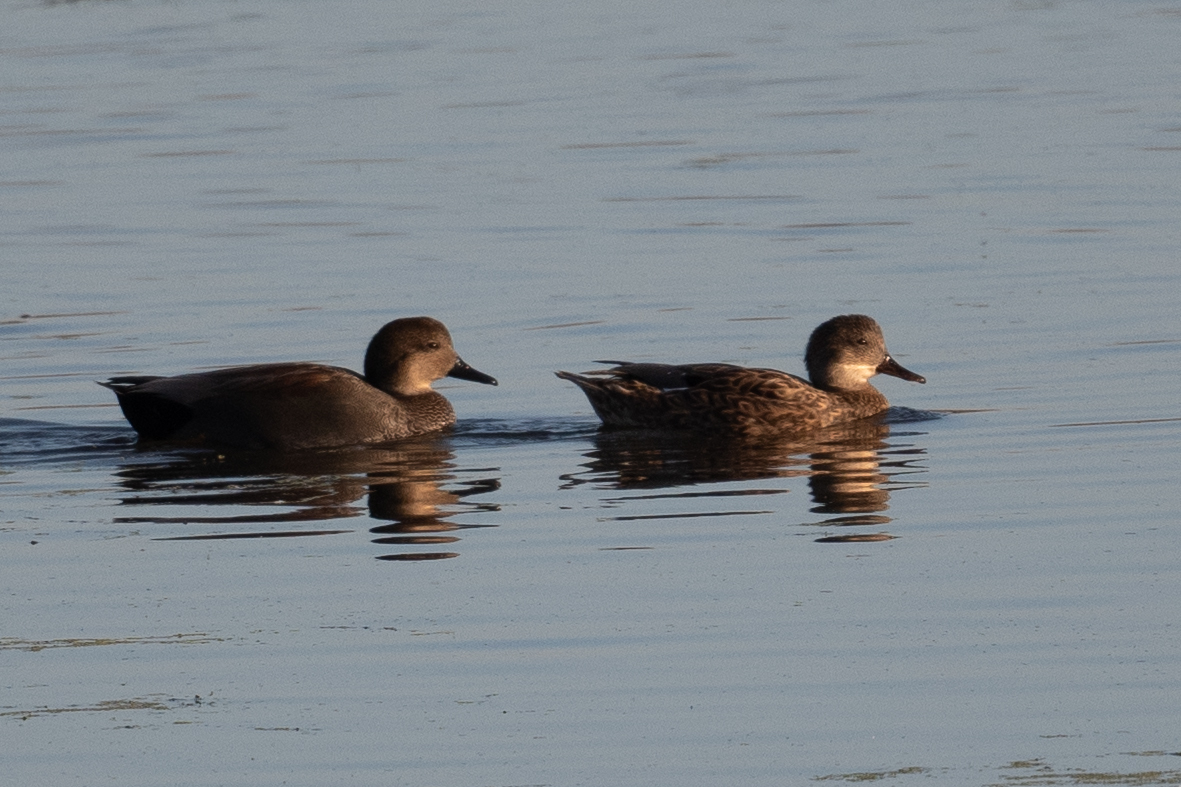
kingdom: Animalia
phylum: Chordata
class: Aves
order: Anseriformes
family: Anatidae
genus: Mareca
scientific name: Mareca strepera
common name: Gadwall
